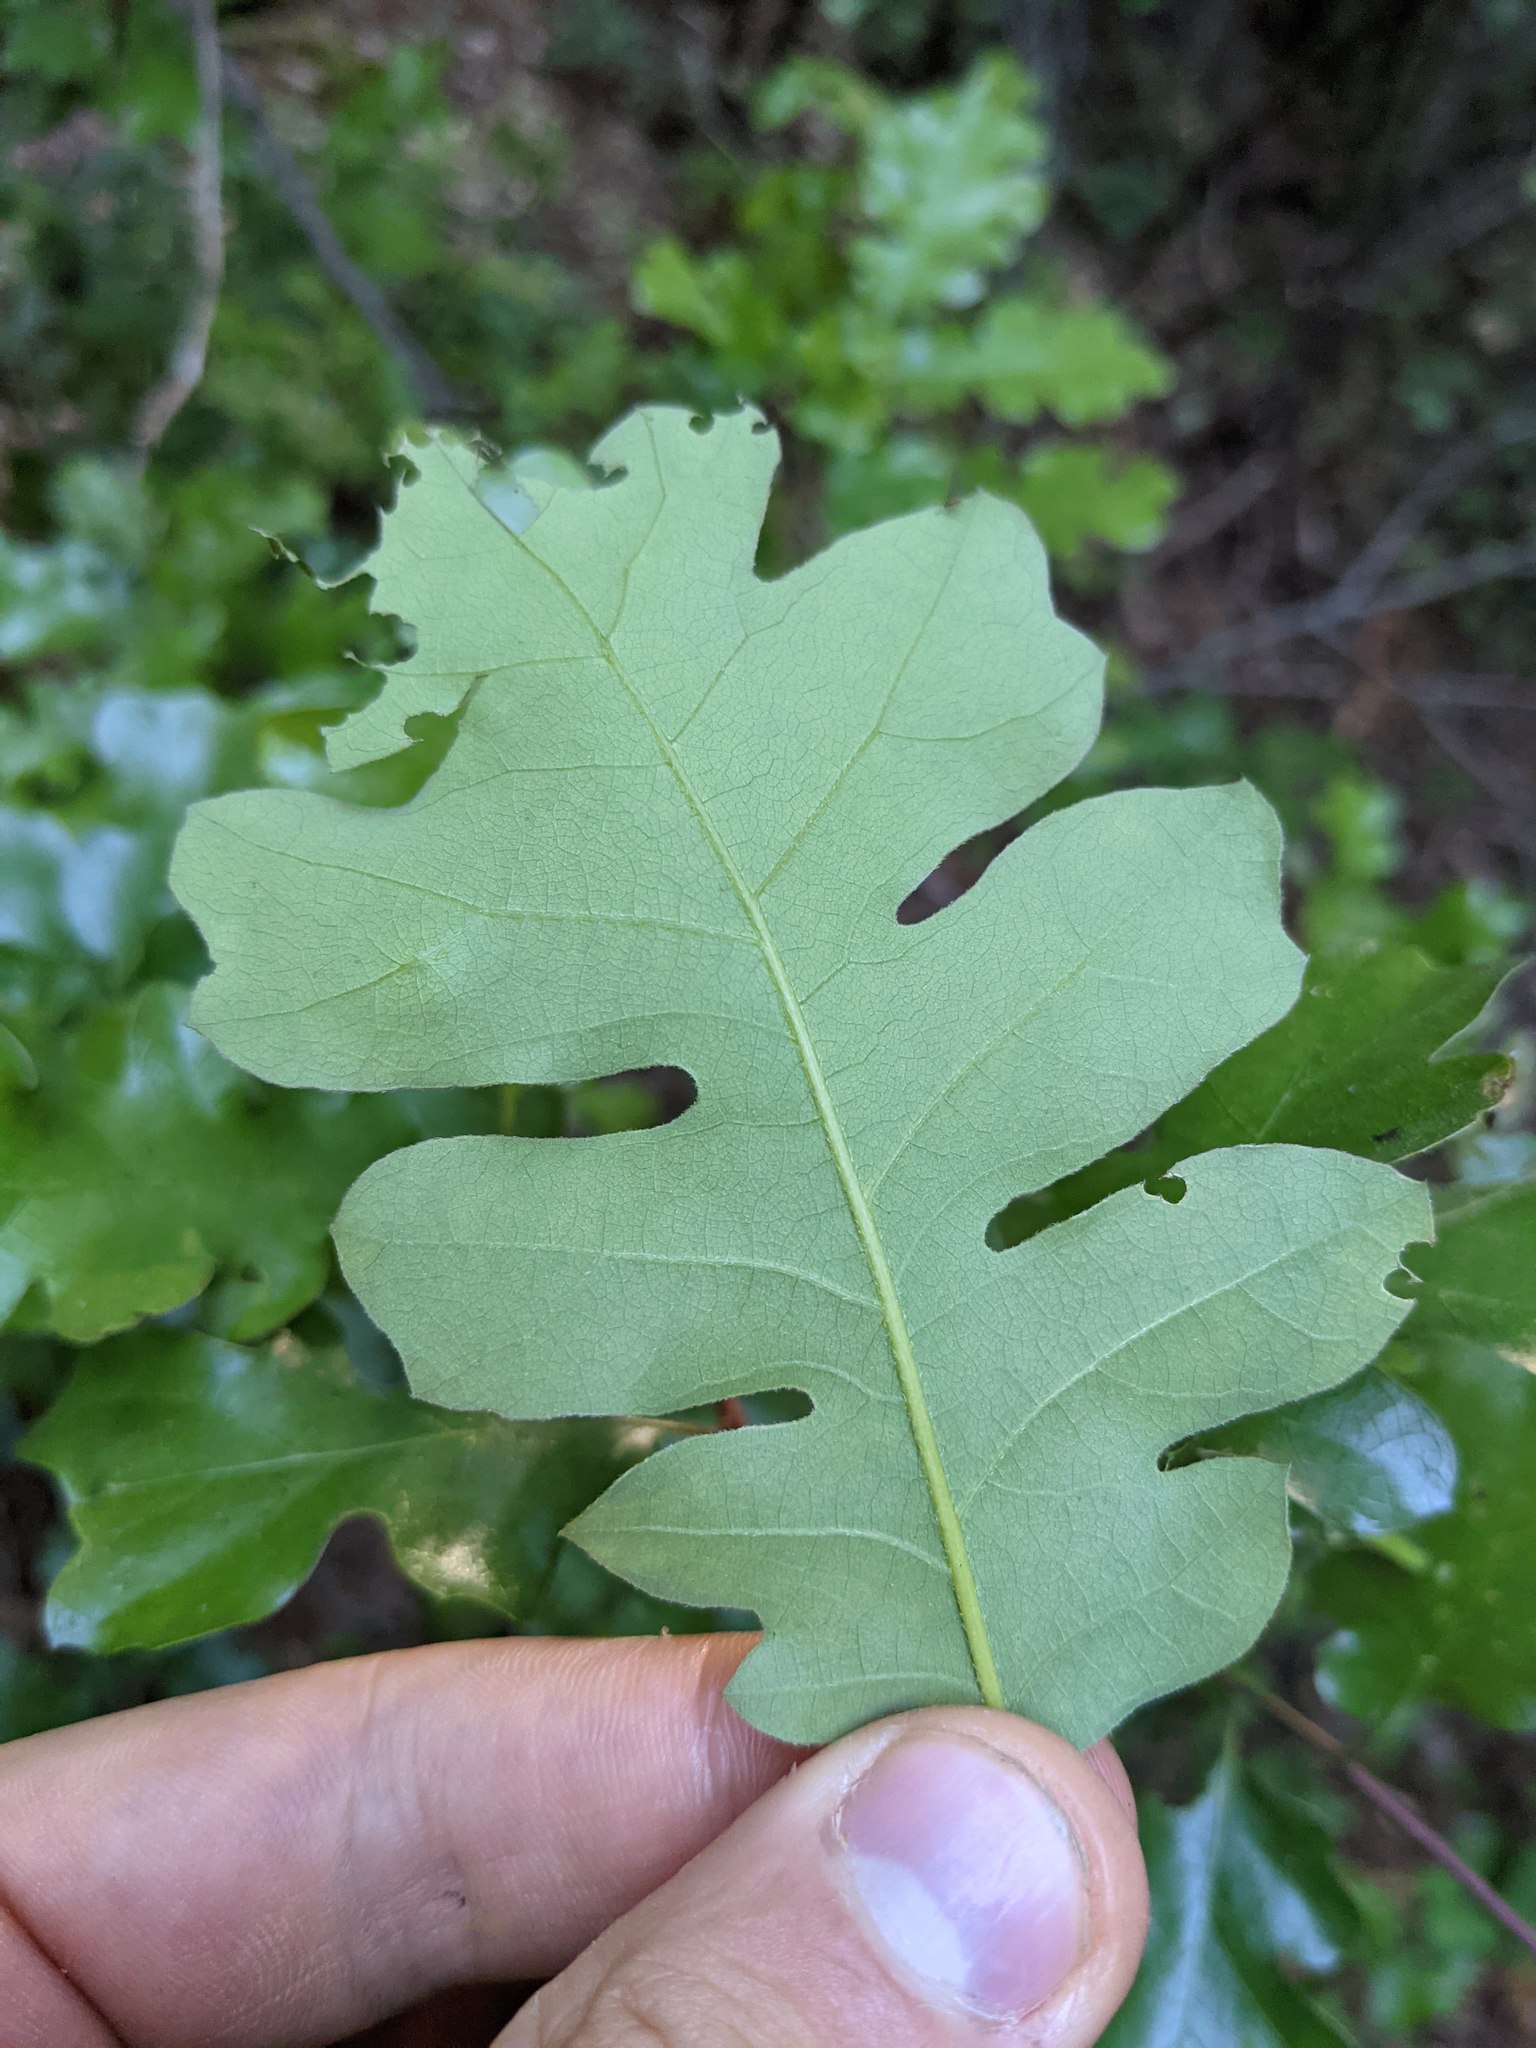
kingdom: Plantae
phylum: Tracheophyta
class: Magnoliopsida
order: Fagales
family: Fagaceae
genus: Quercus
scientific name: Quercus garryana
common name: Garry oak
